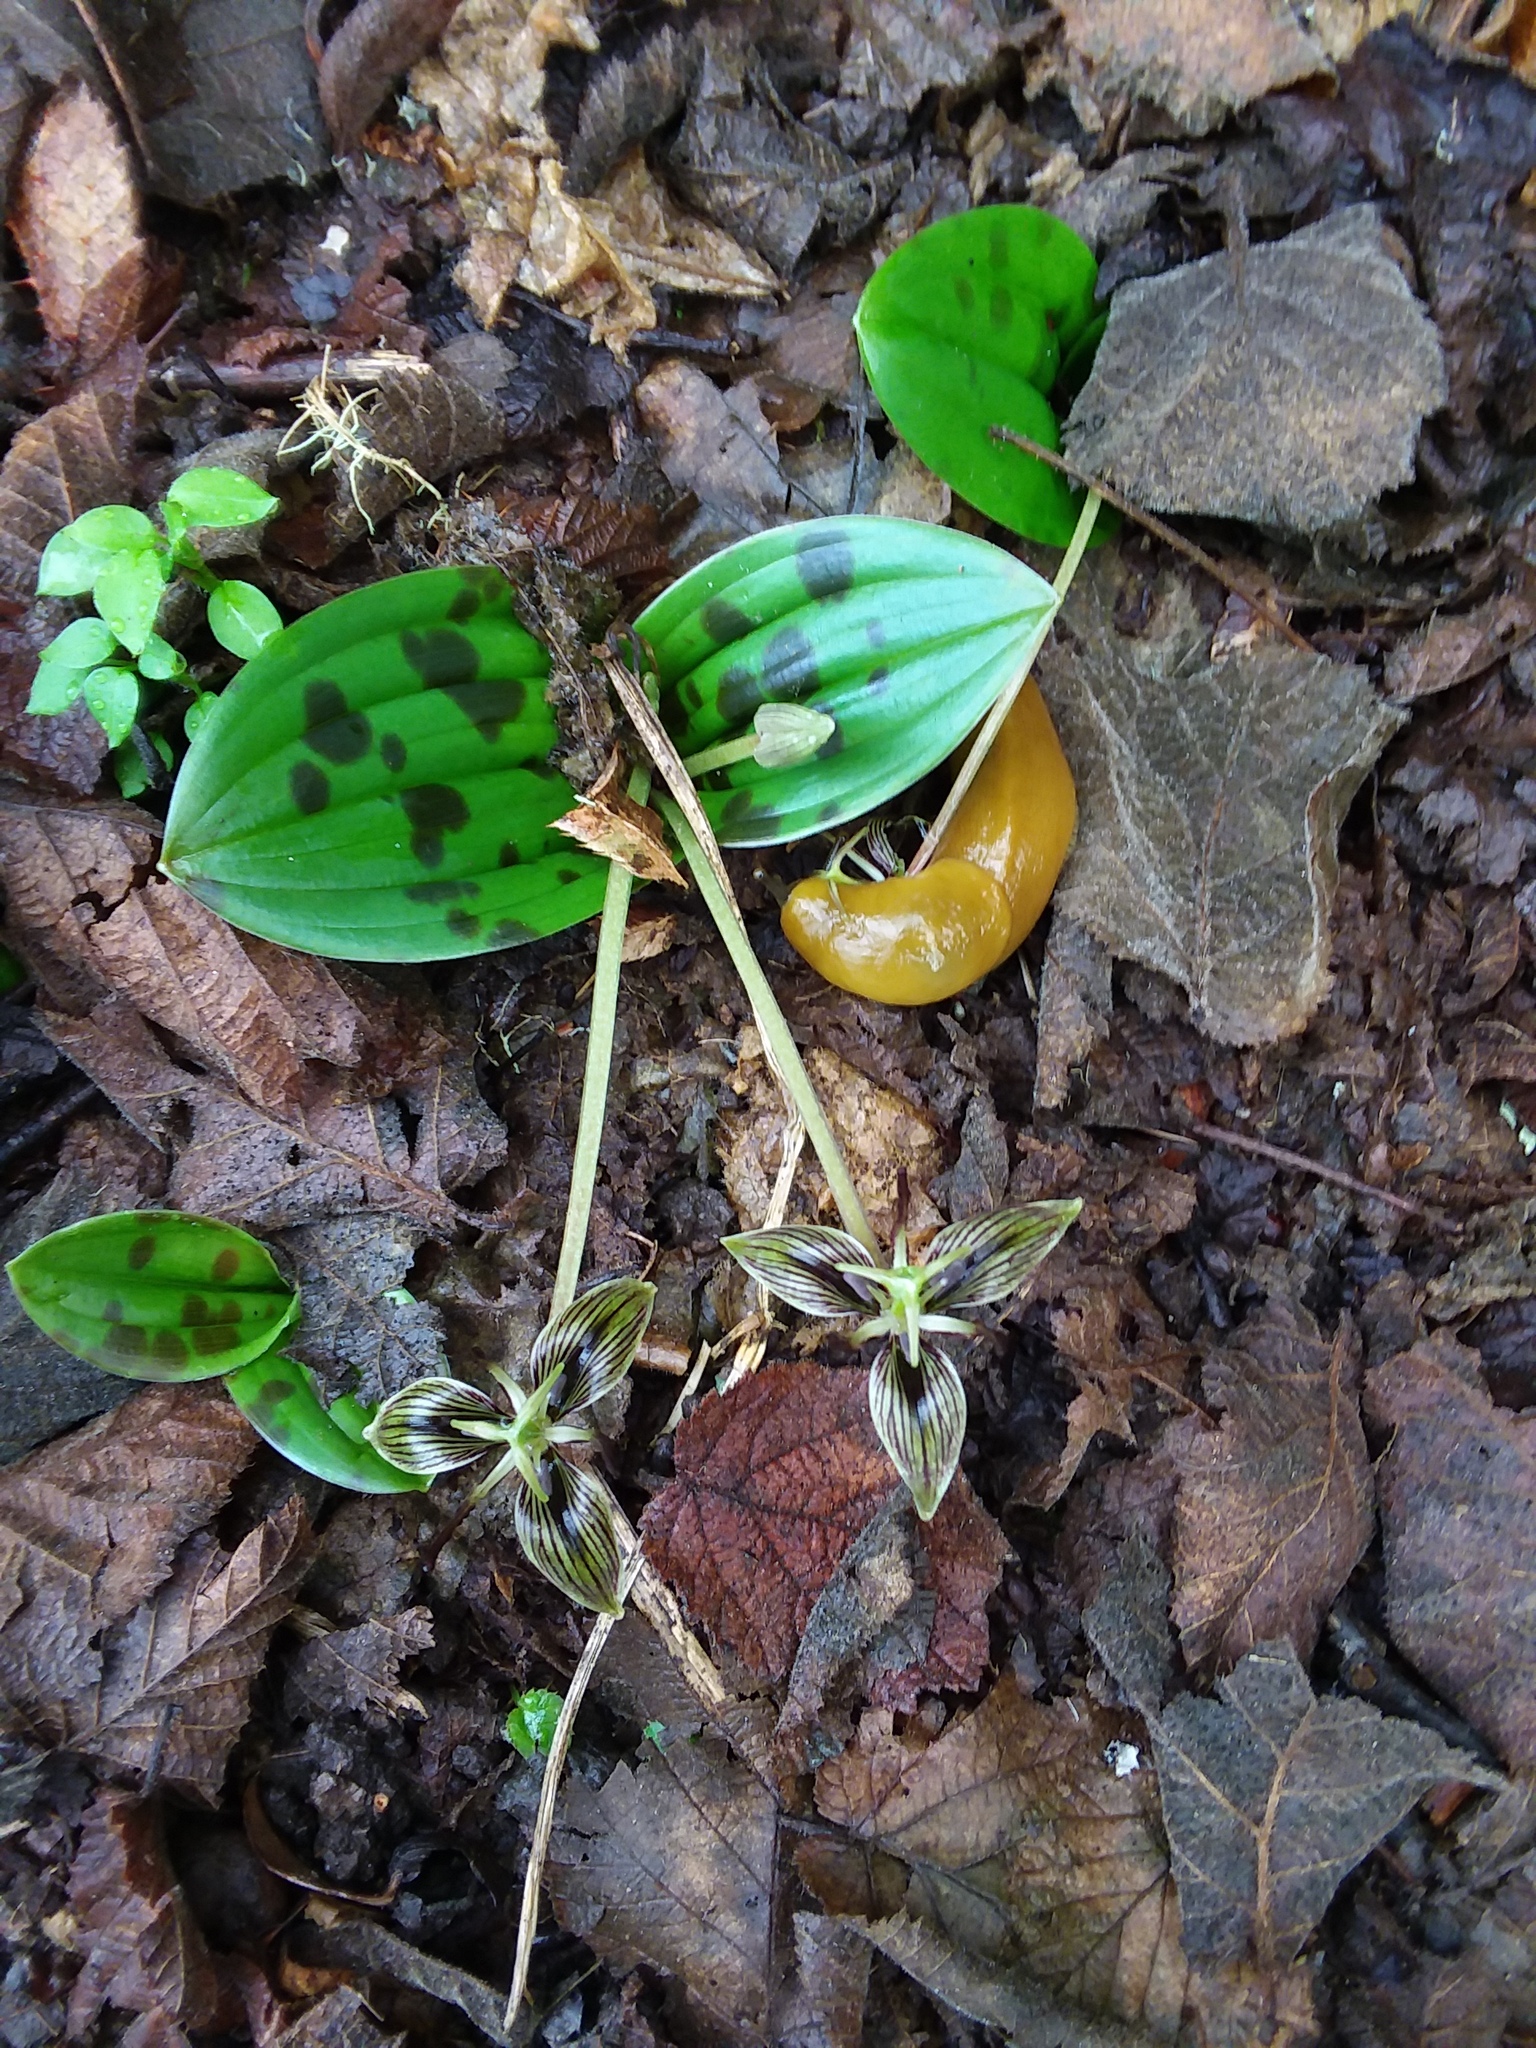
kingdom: Plantae
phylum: Tracheophyta
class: Liliopsida
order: Liliales
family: Liliaceae
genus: Scoliopus
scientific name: Scoliopus bigelovii
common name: Foetid adder's-tongue
